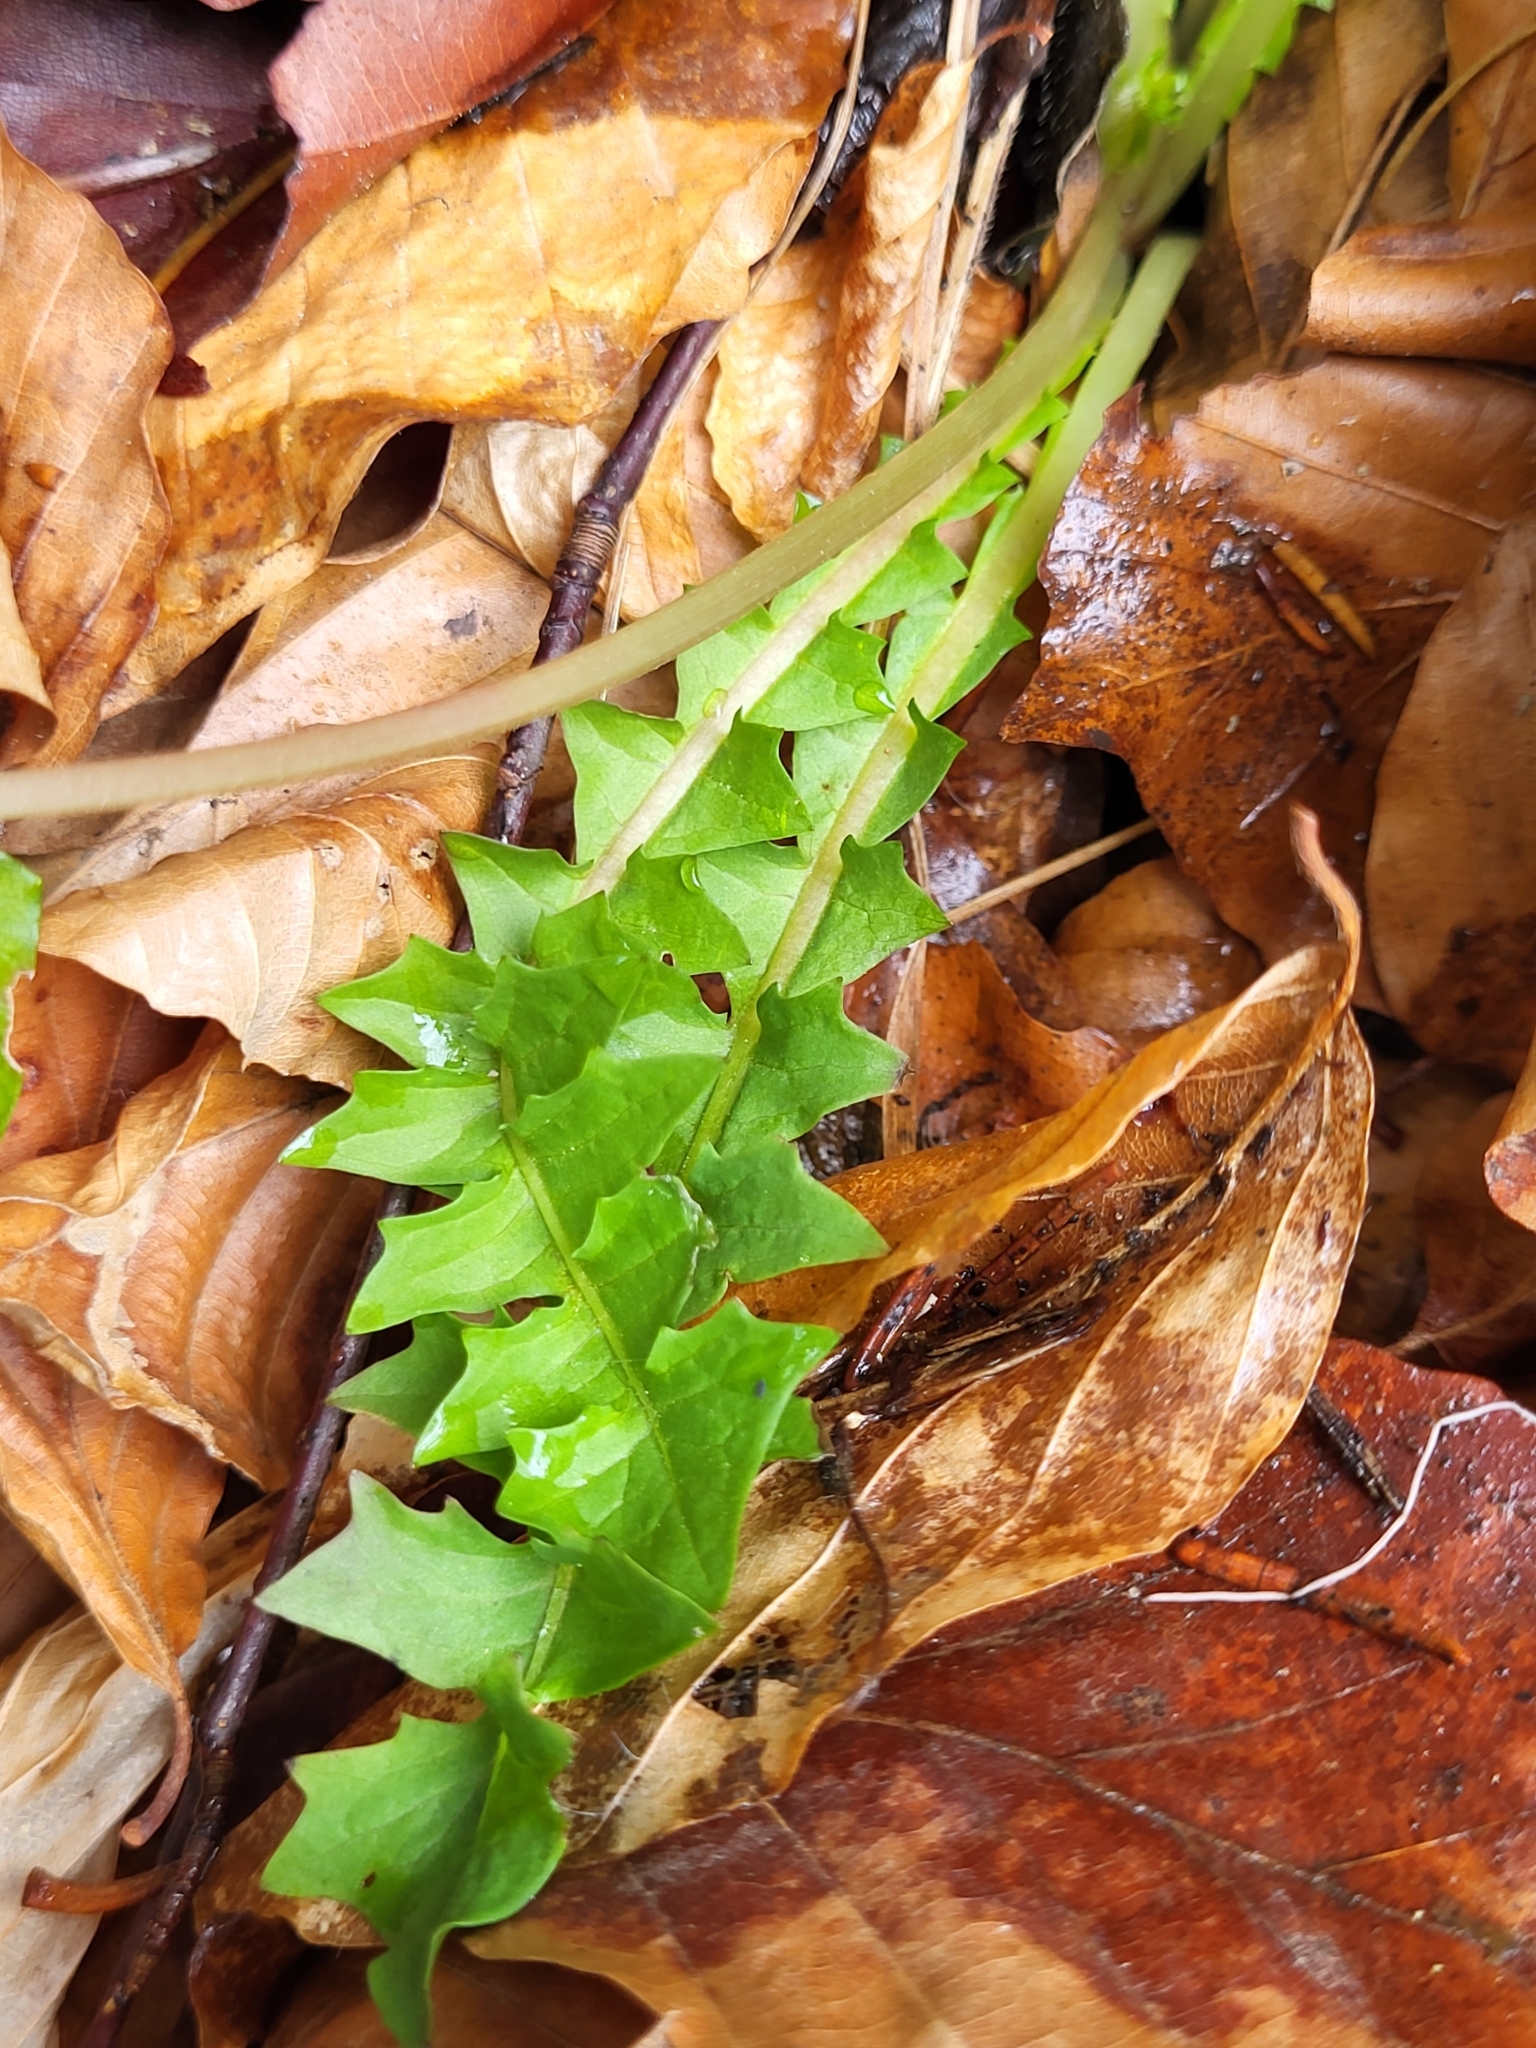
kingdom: Plantae
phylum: Tracheophyta
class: Magnoliopsida
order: Asterales
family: Asteraceae
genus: Aposeris
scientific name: Aposeris foetida
